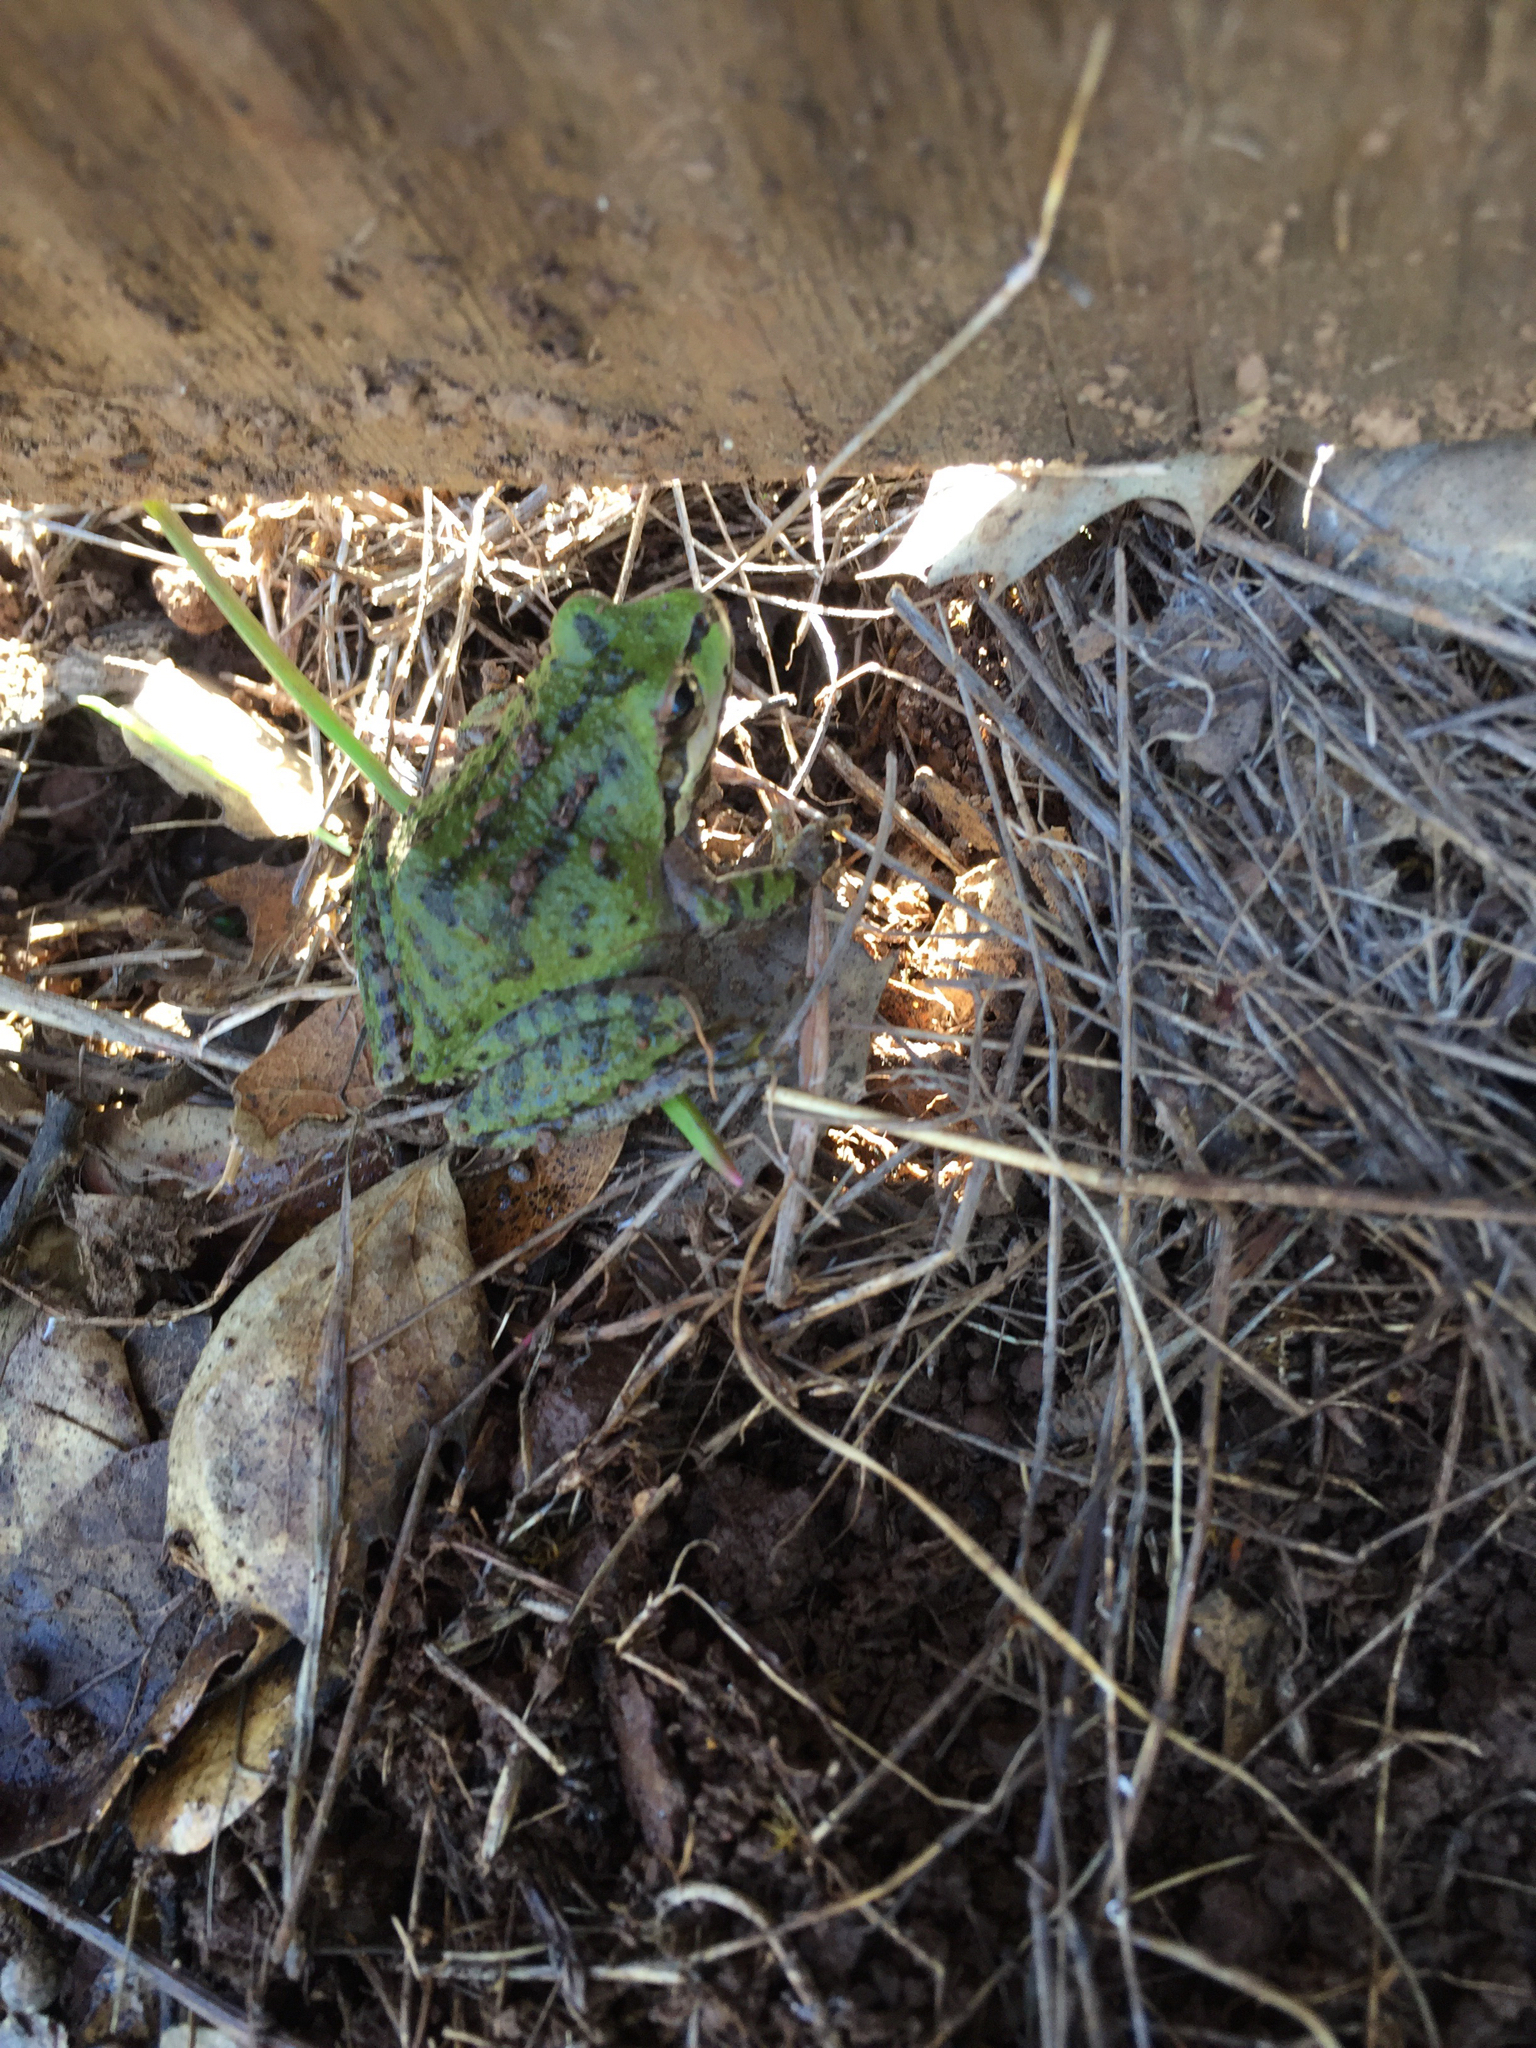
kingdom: Animalia
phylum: Chordata
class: Amphibia
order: Anura
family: Hylidae
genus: Pseudacris
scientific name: Pseudacris regilla
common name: Pacific chorus frog
